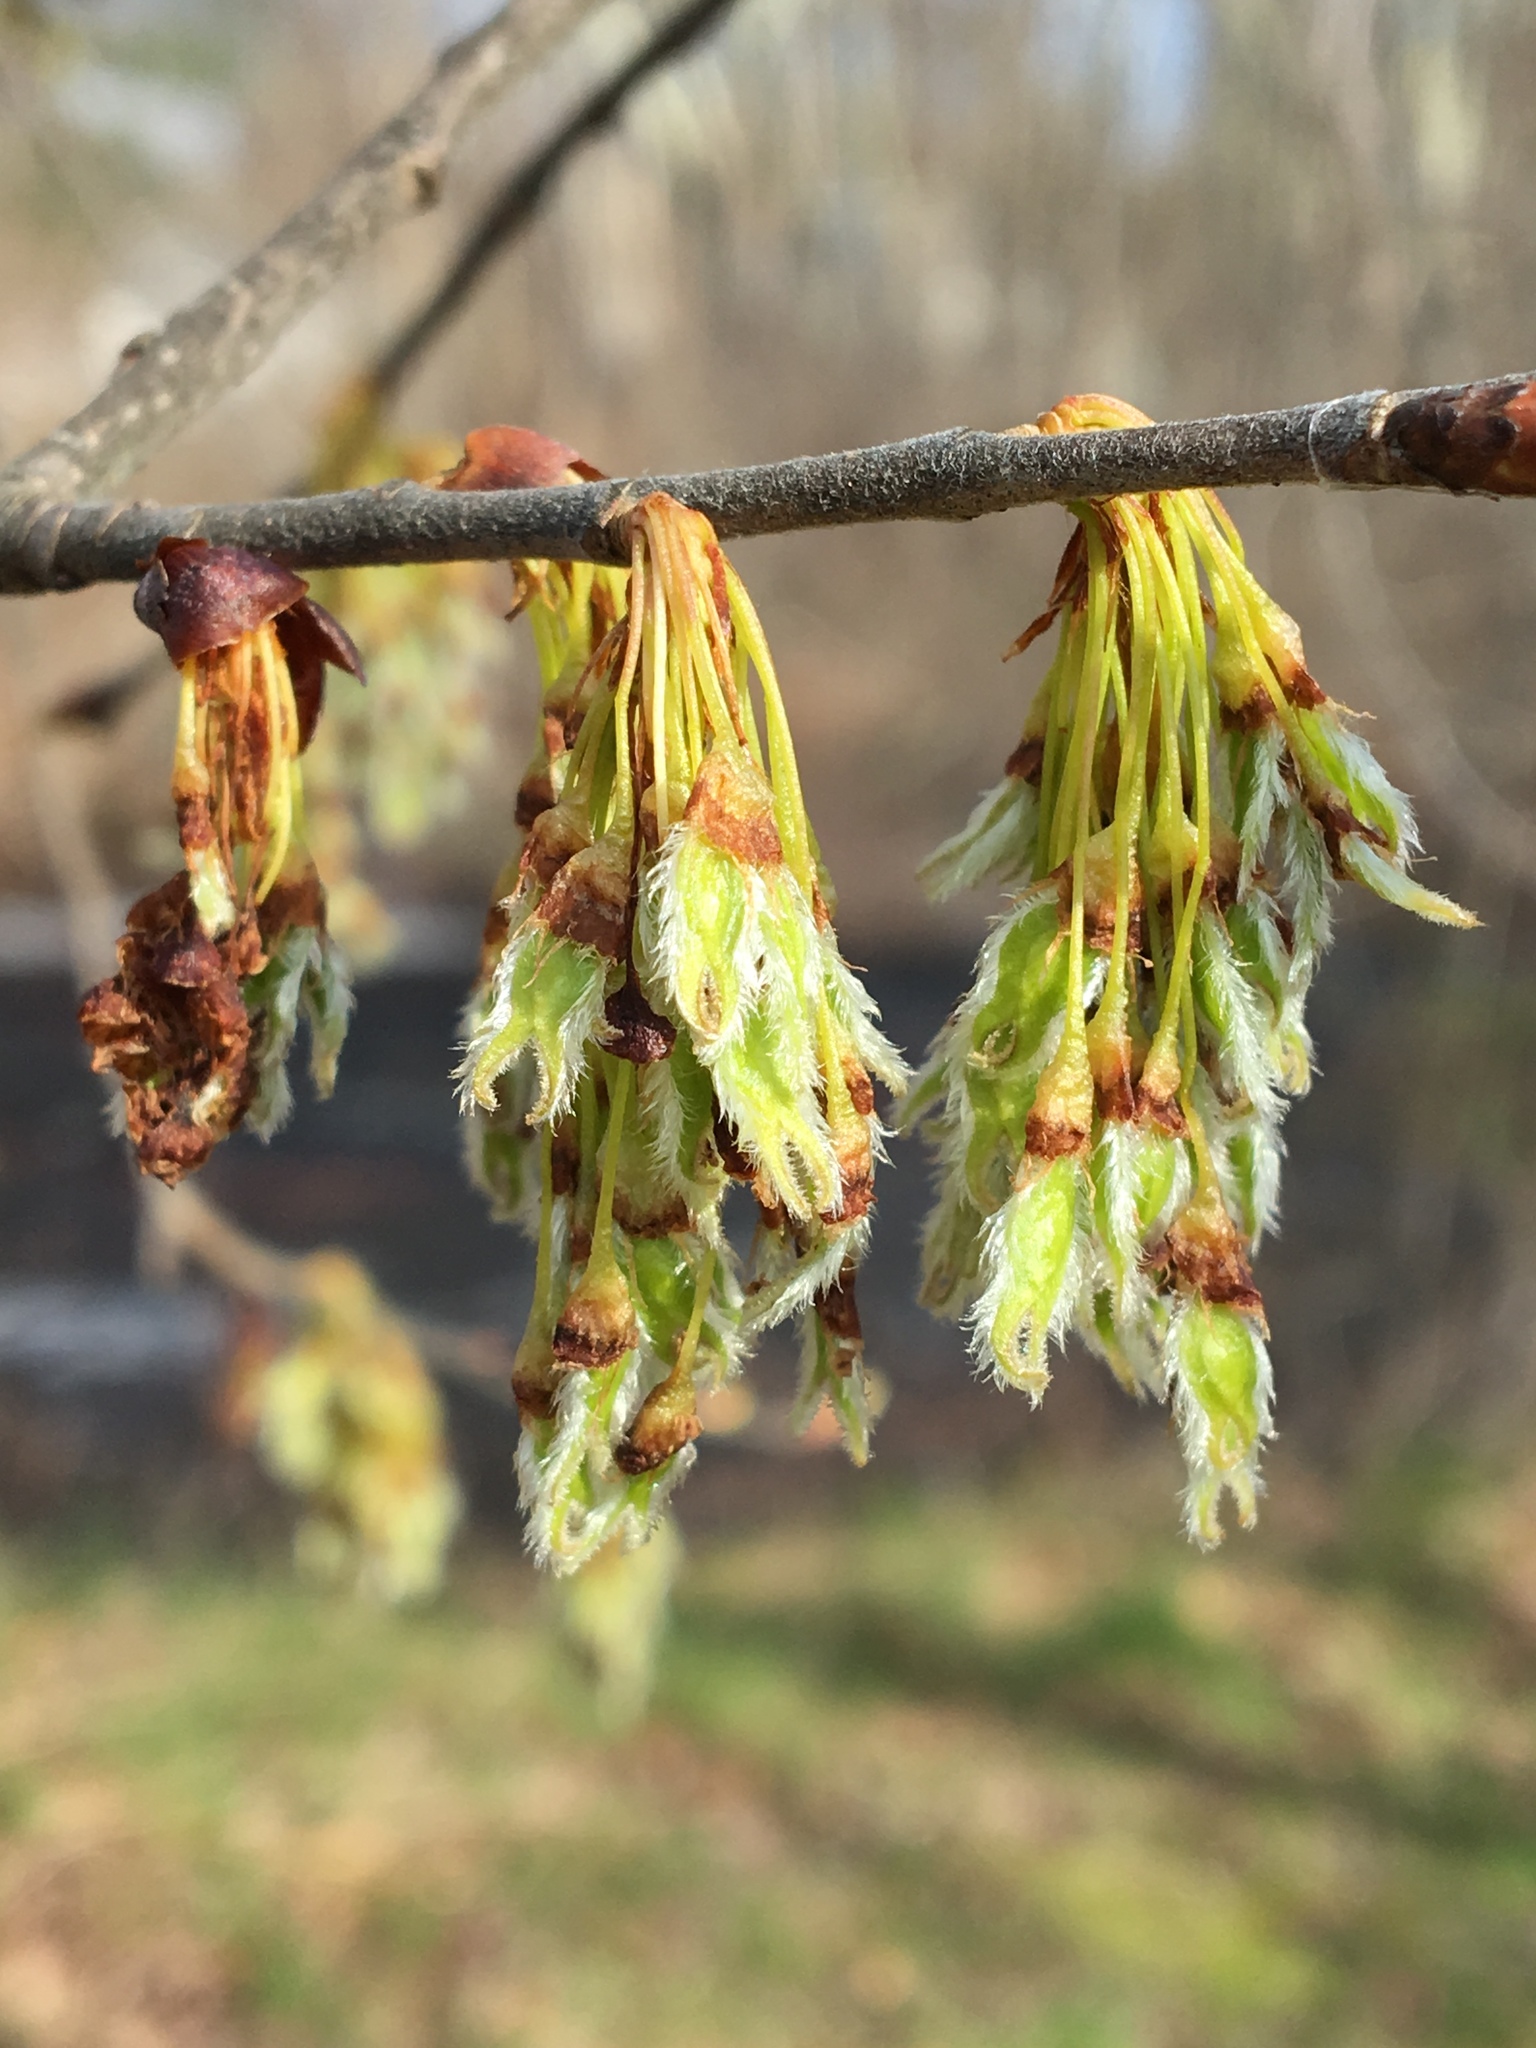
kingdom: Plantae
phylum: Tracheophyta
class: Magnoliopsida
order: Rosales
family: Ulmaceae
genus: Ulmus
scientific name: Ulmus americana
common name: American elm
